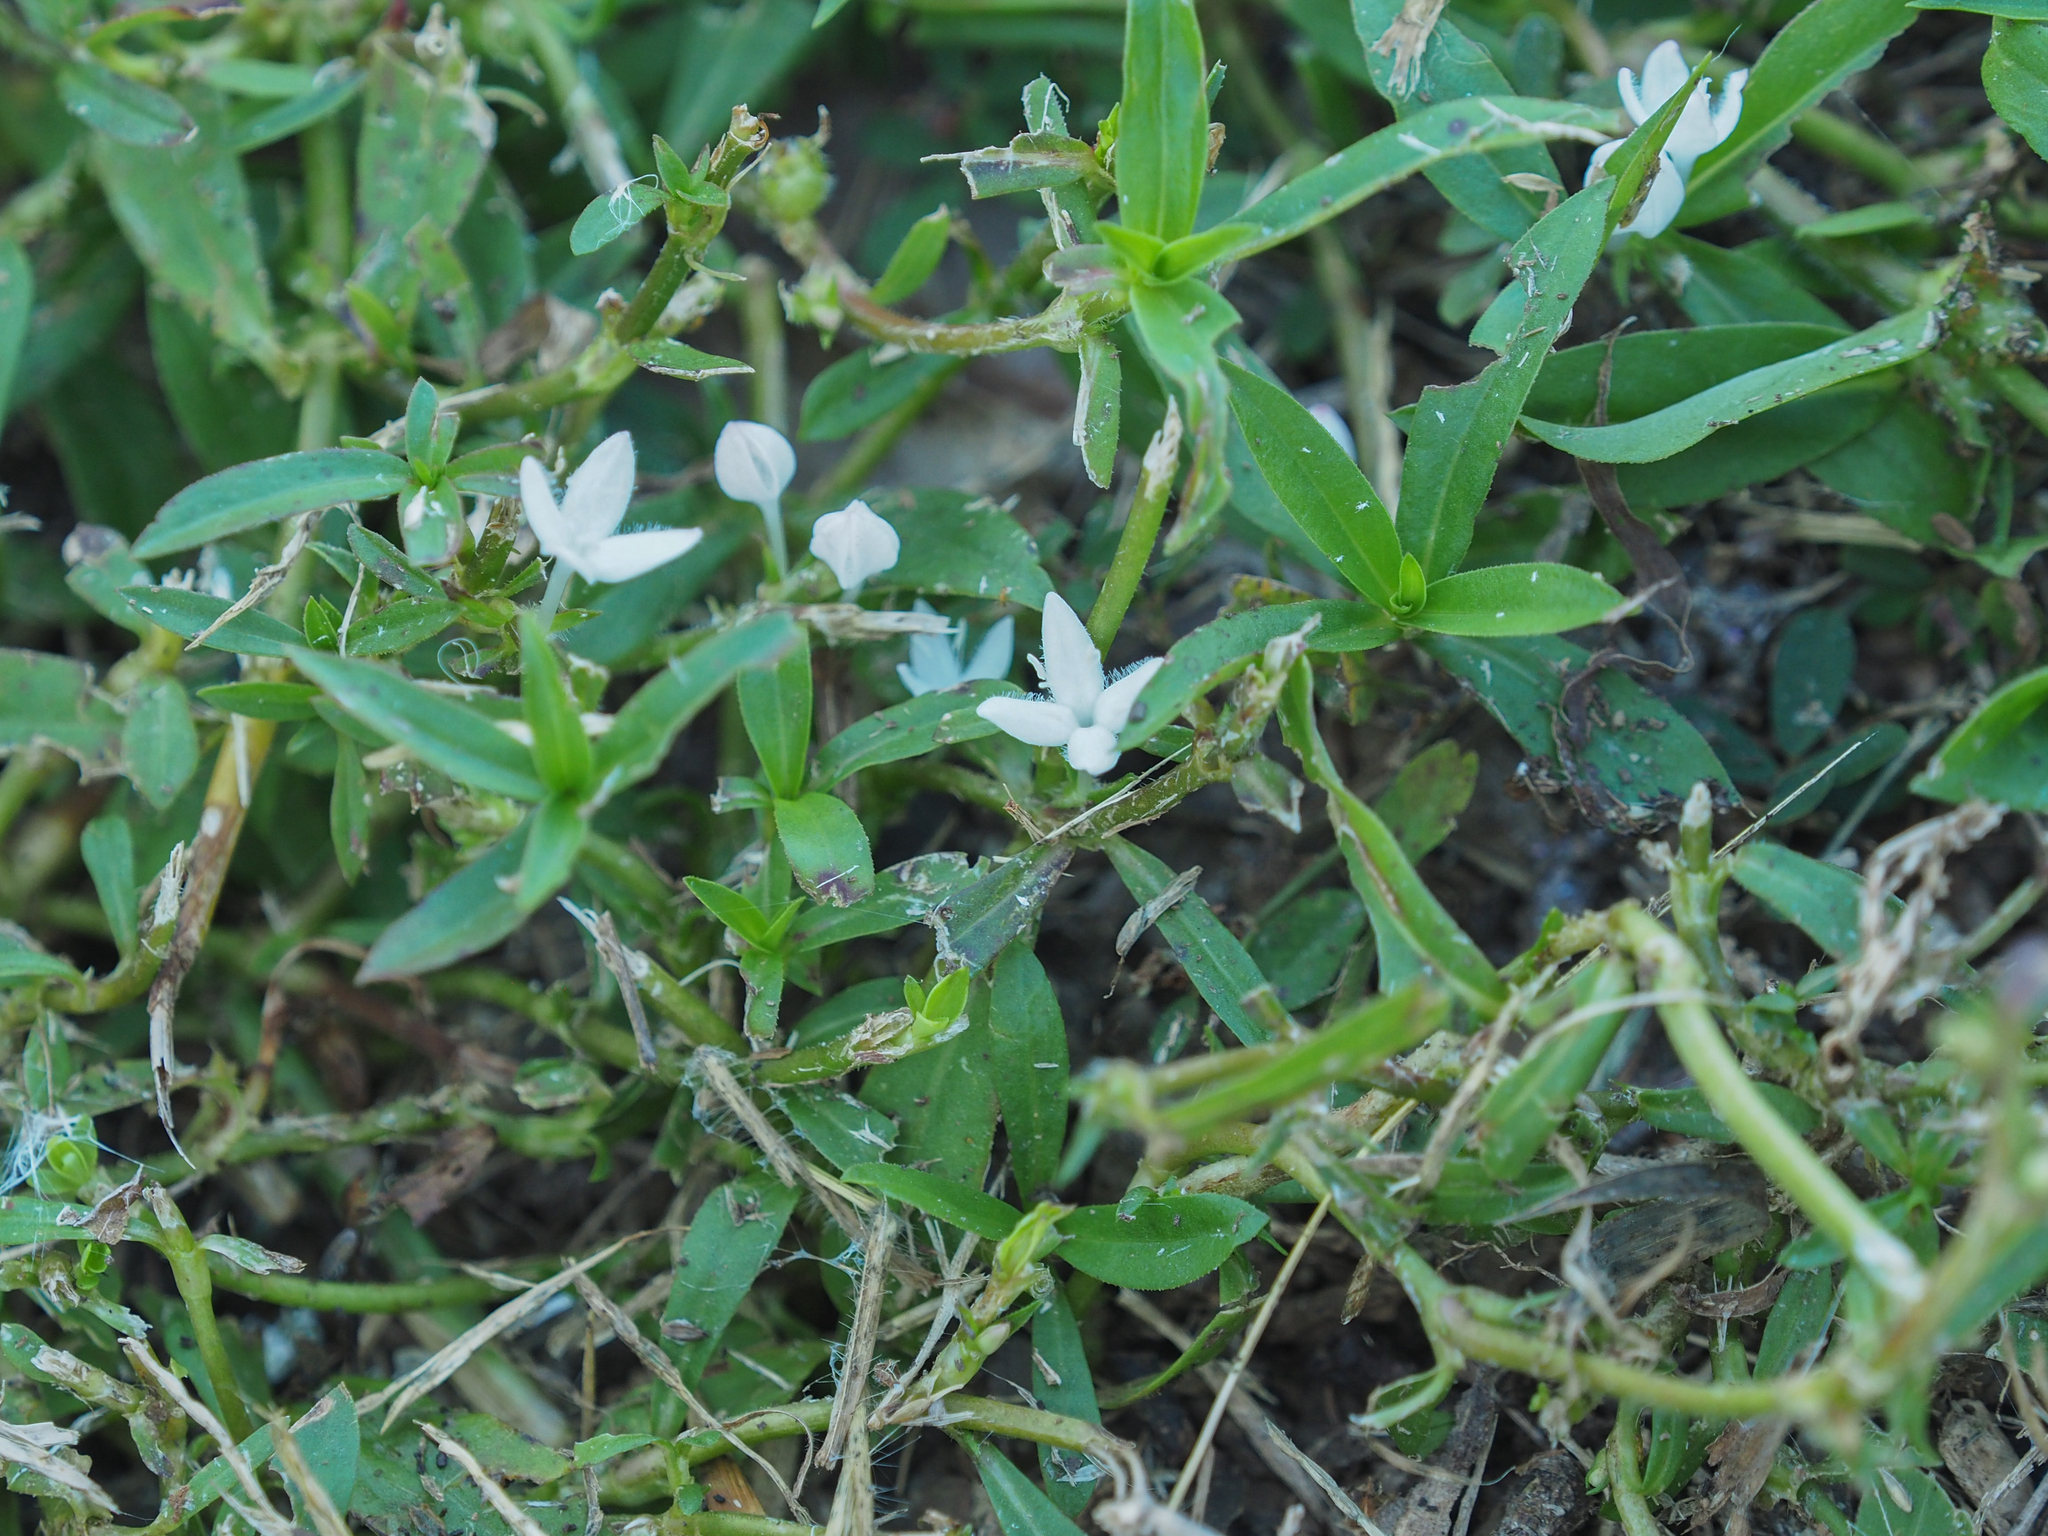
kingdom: Plantae
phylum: Tracheophyta
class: Magnoliopsida
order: Gentianales
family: Rubiaceae
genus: Diodia
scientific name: Diodia virginiana
